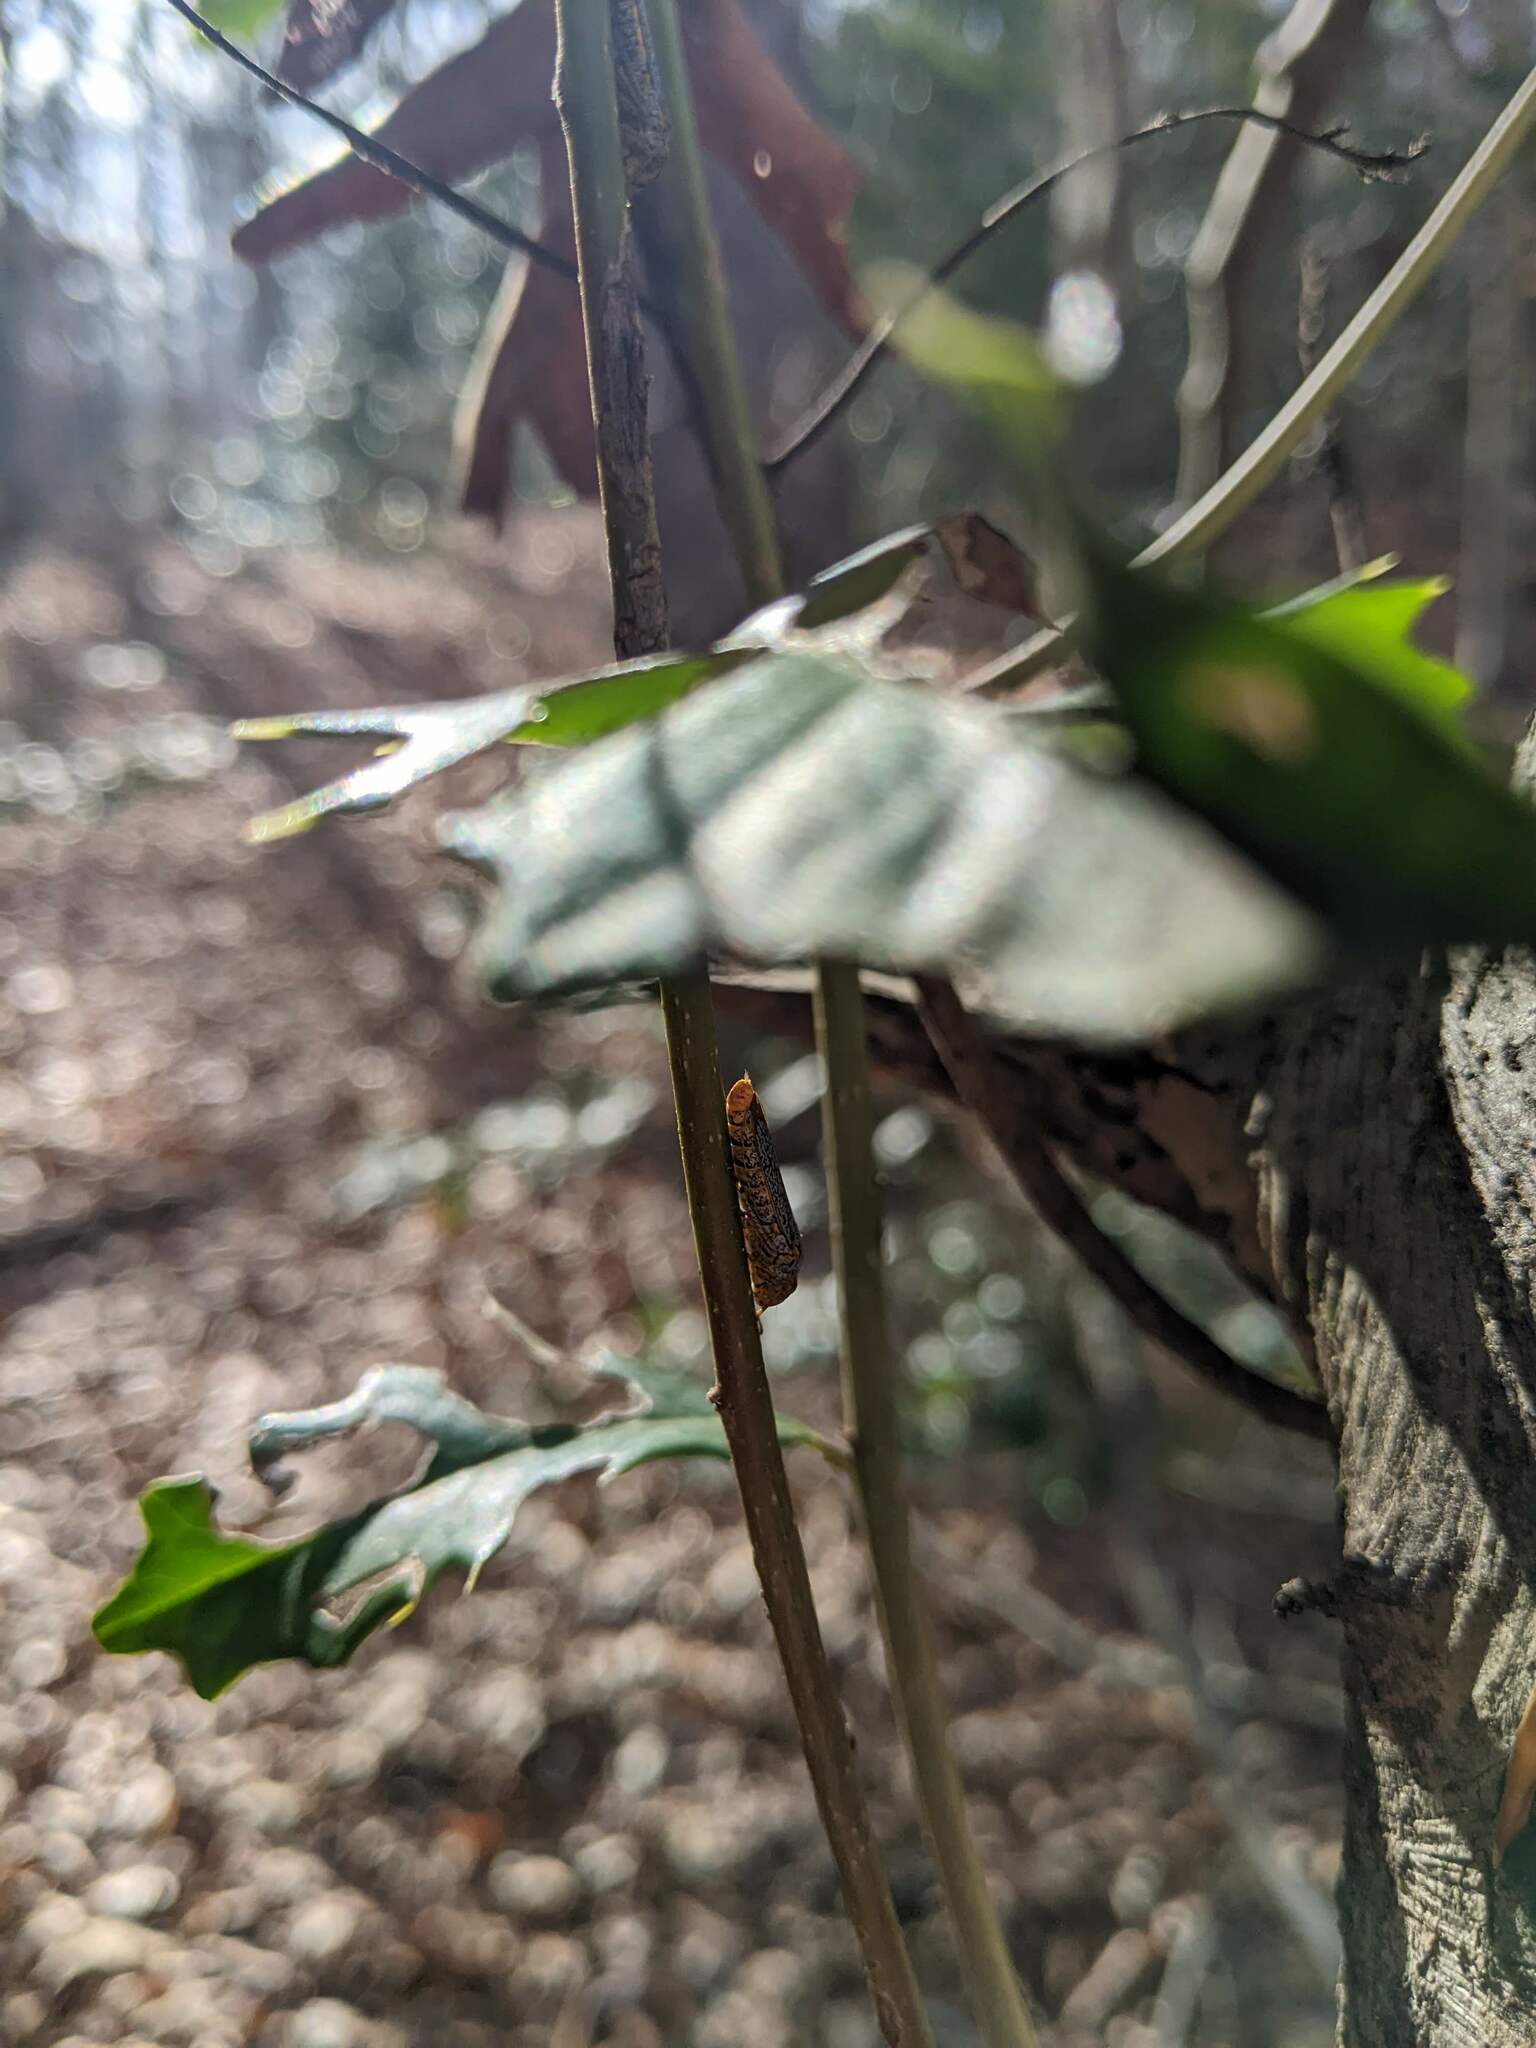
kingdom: Animalia
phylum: Arthropoda
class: Insecta
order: Hemiptera
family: Cicadellidae
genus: Oncometopia
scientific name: Oncometopia orbona
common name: Broad-headed sharpshooter
